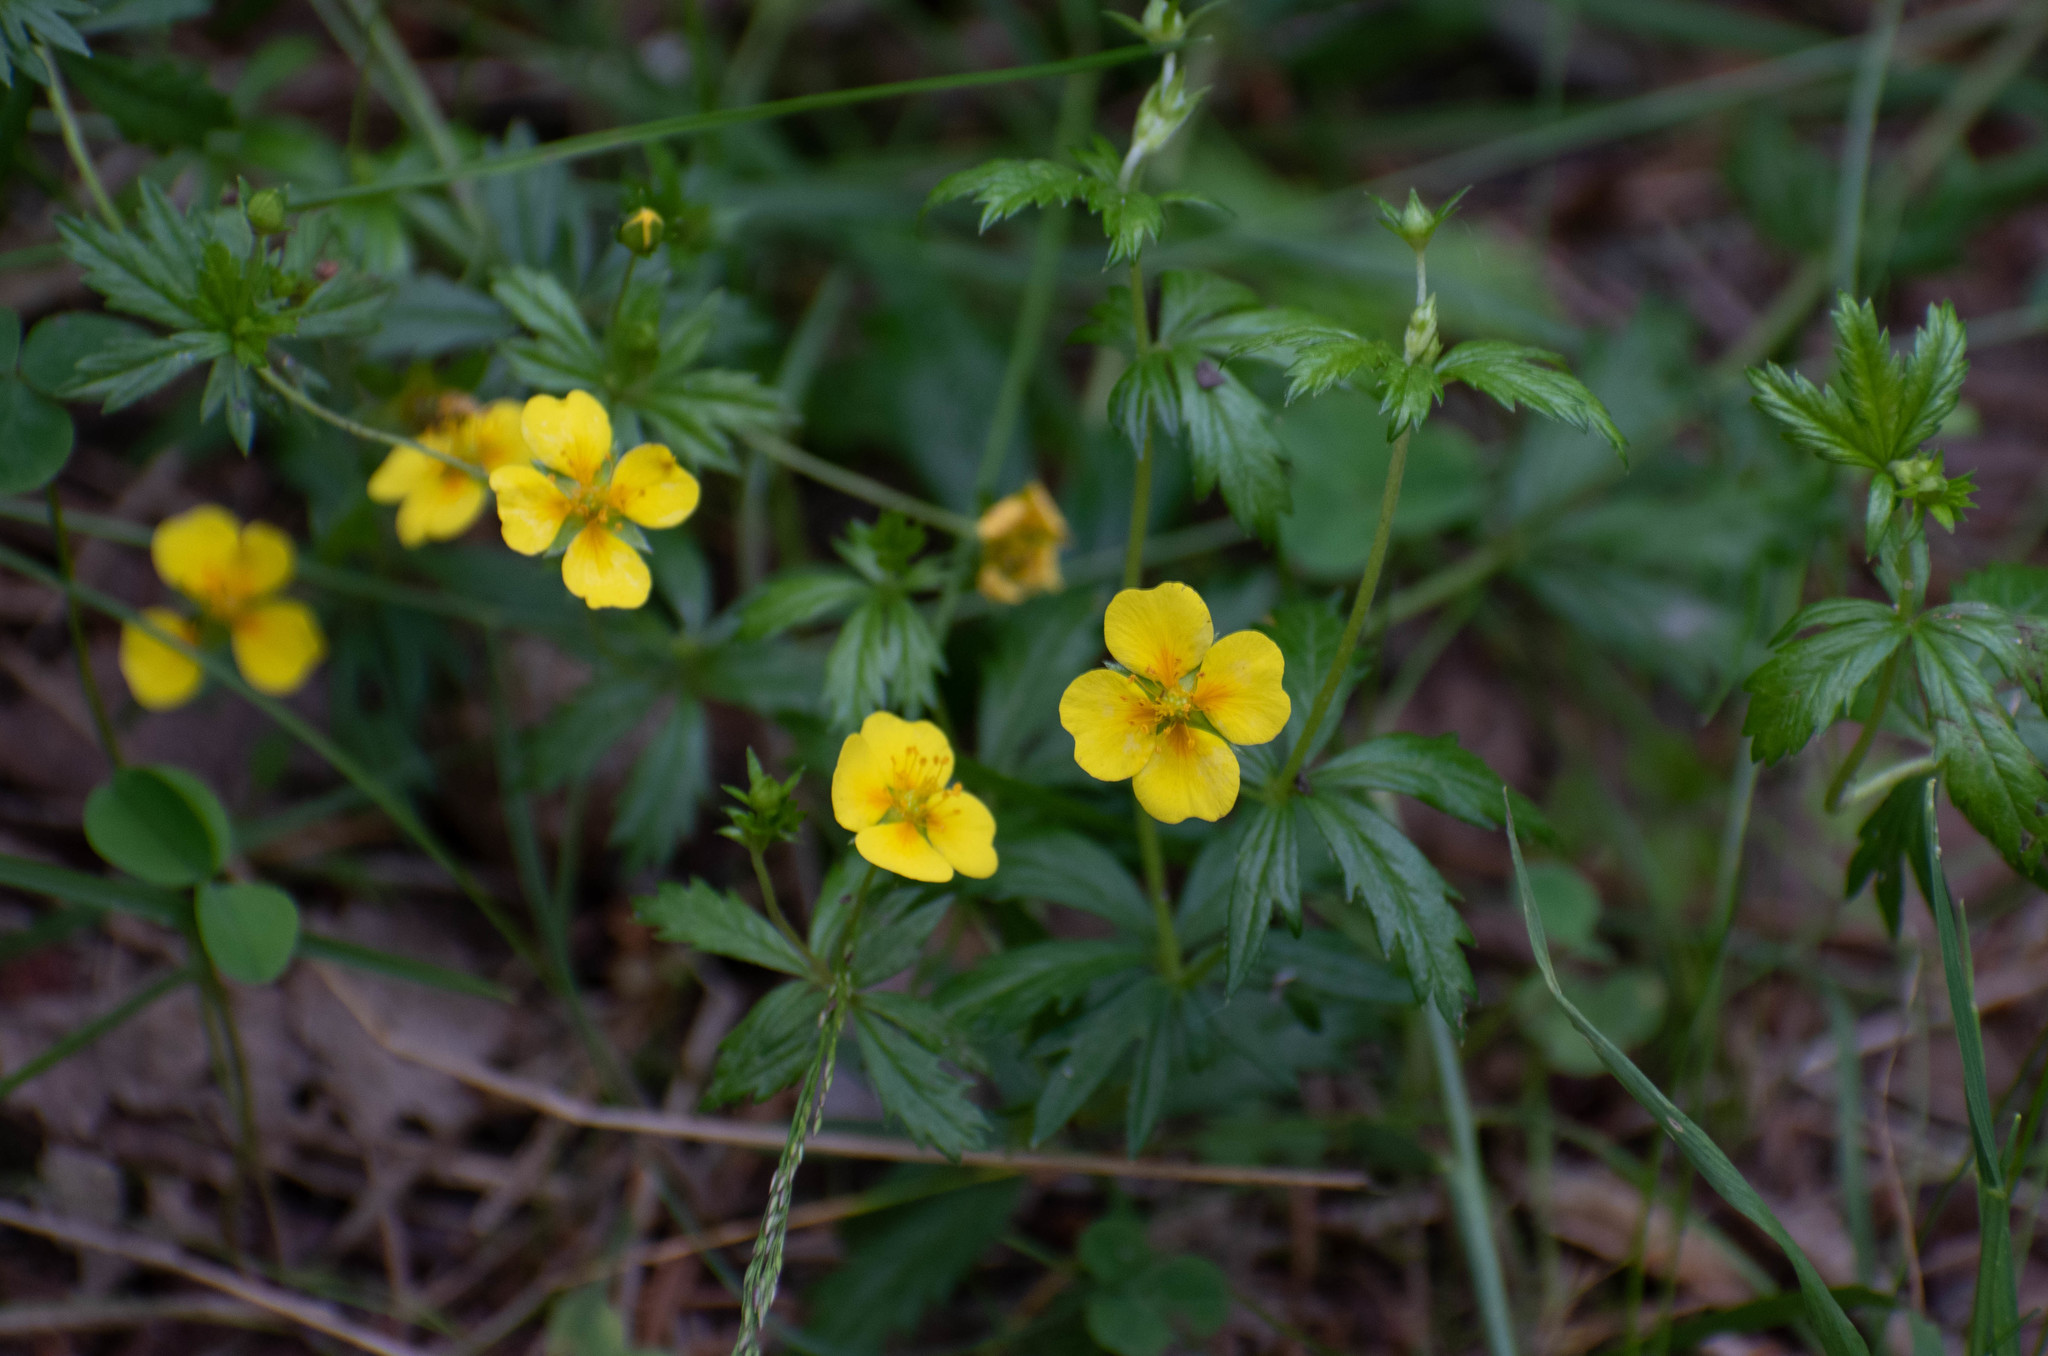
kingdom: Plantae
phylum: Tracheophyta
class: Magnoliopsida
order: Rosales
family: Rosaceae
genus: Potentilla
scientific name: Potentilla erecta
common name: Tormentil
